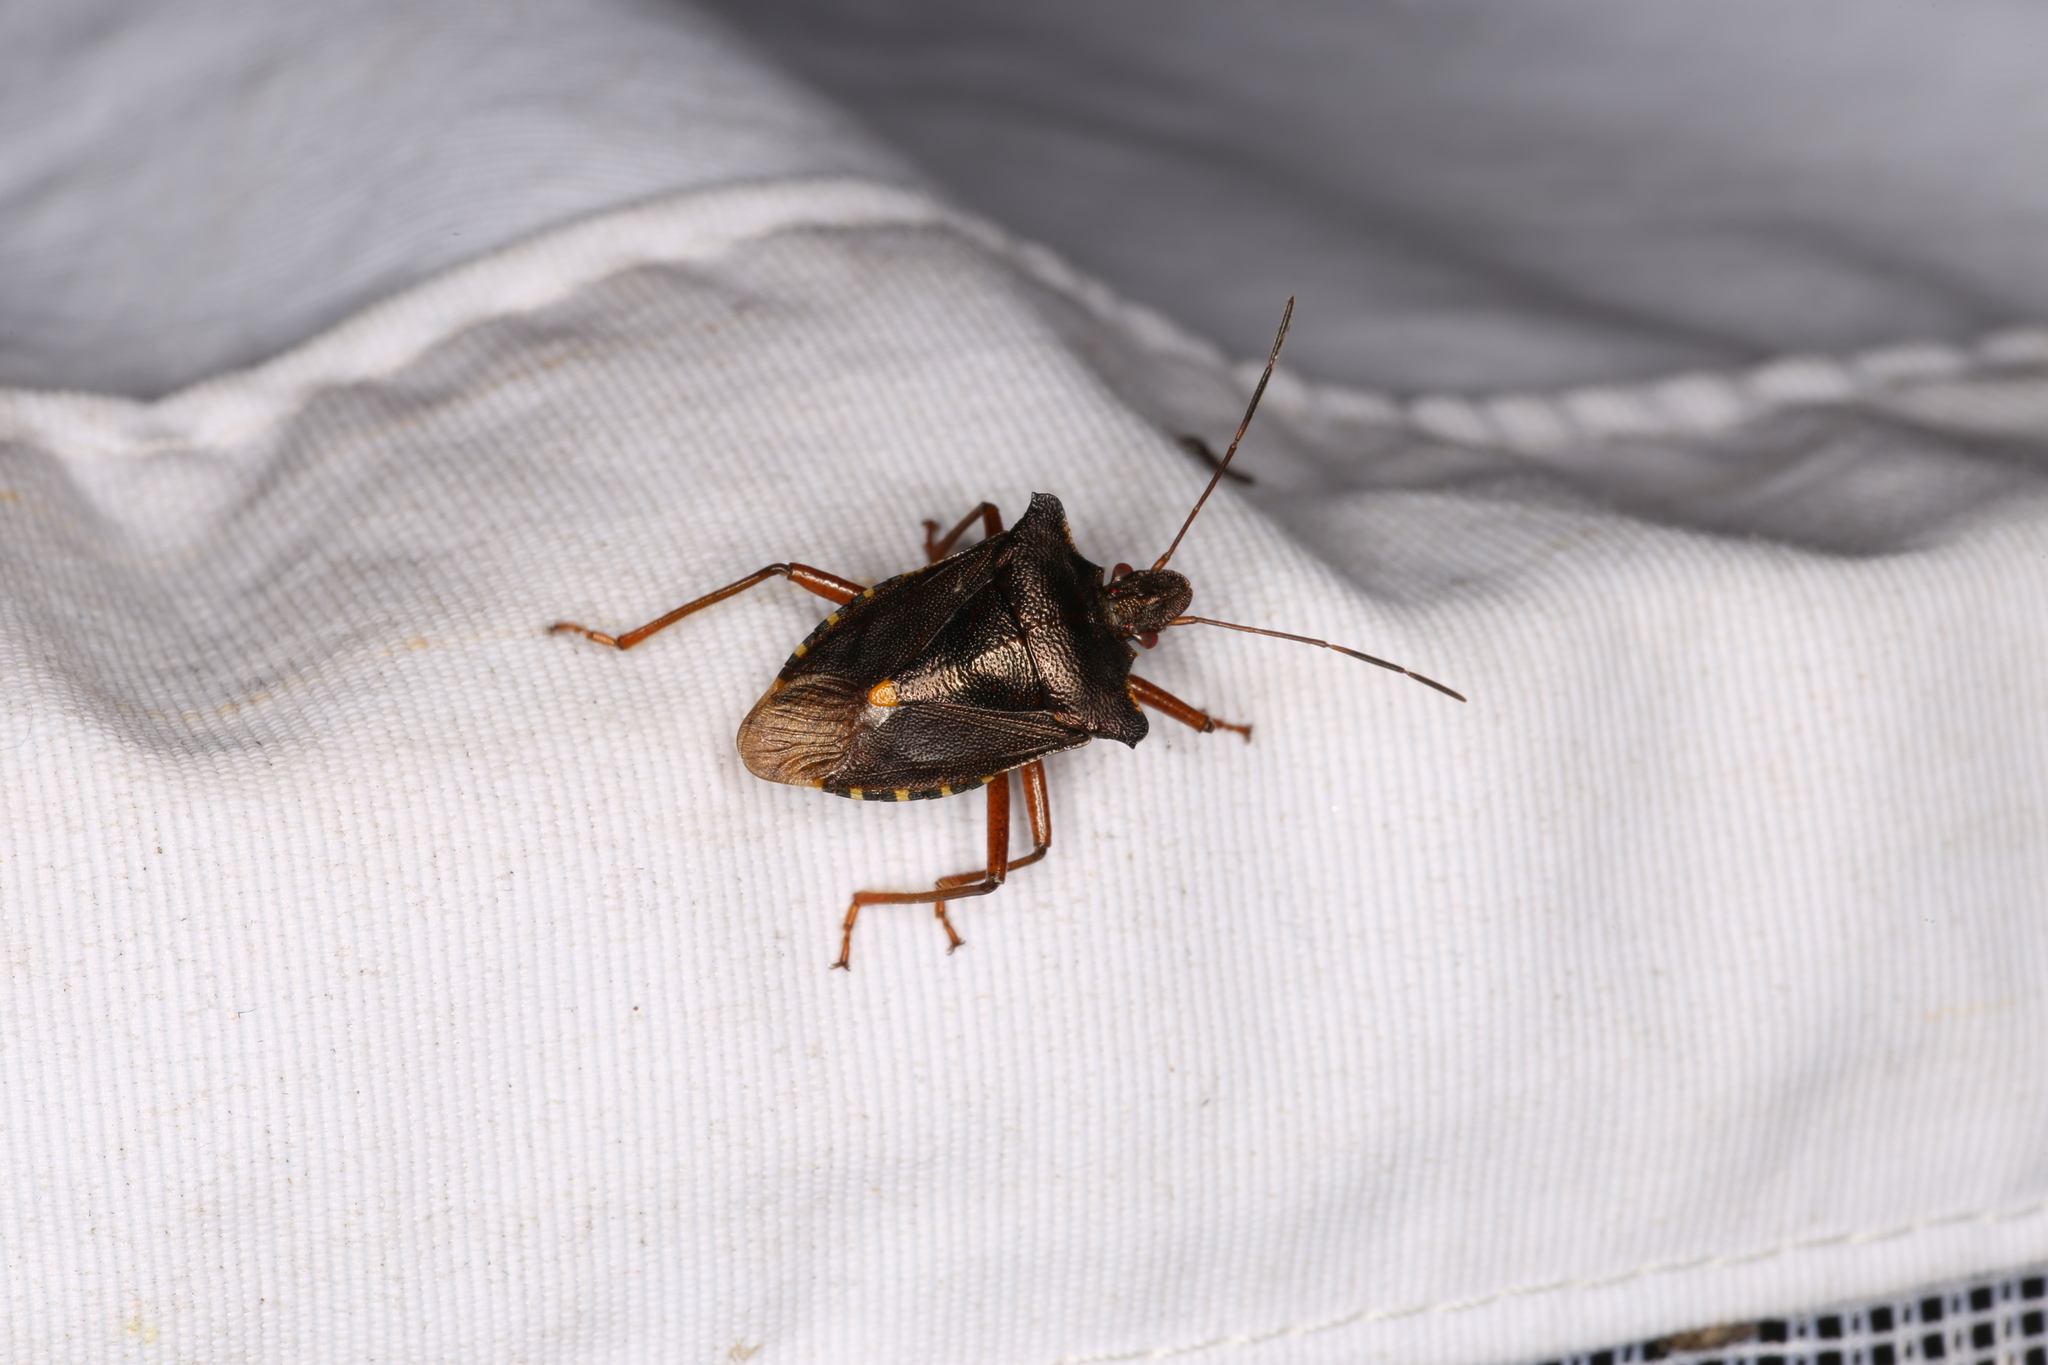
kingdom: Animalia
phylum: Arthropoda
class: Insecta
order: Hemiptera
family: Pentatomidae
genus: Pentatoma
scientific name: Pentatoma rufipes
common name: Forest bug
